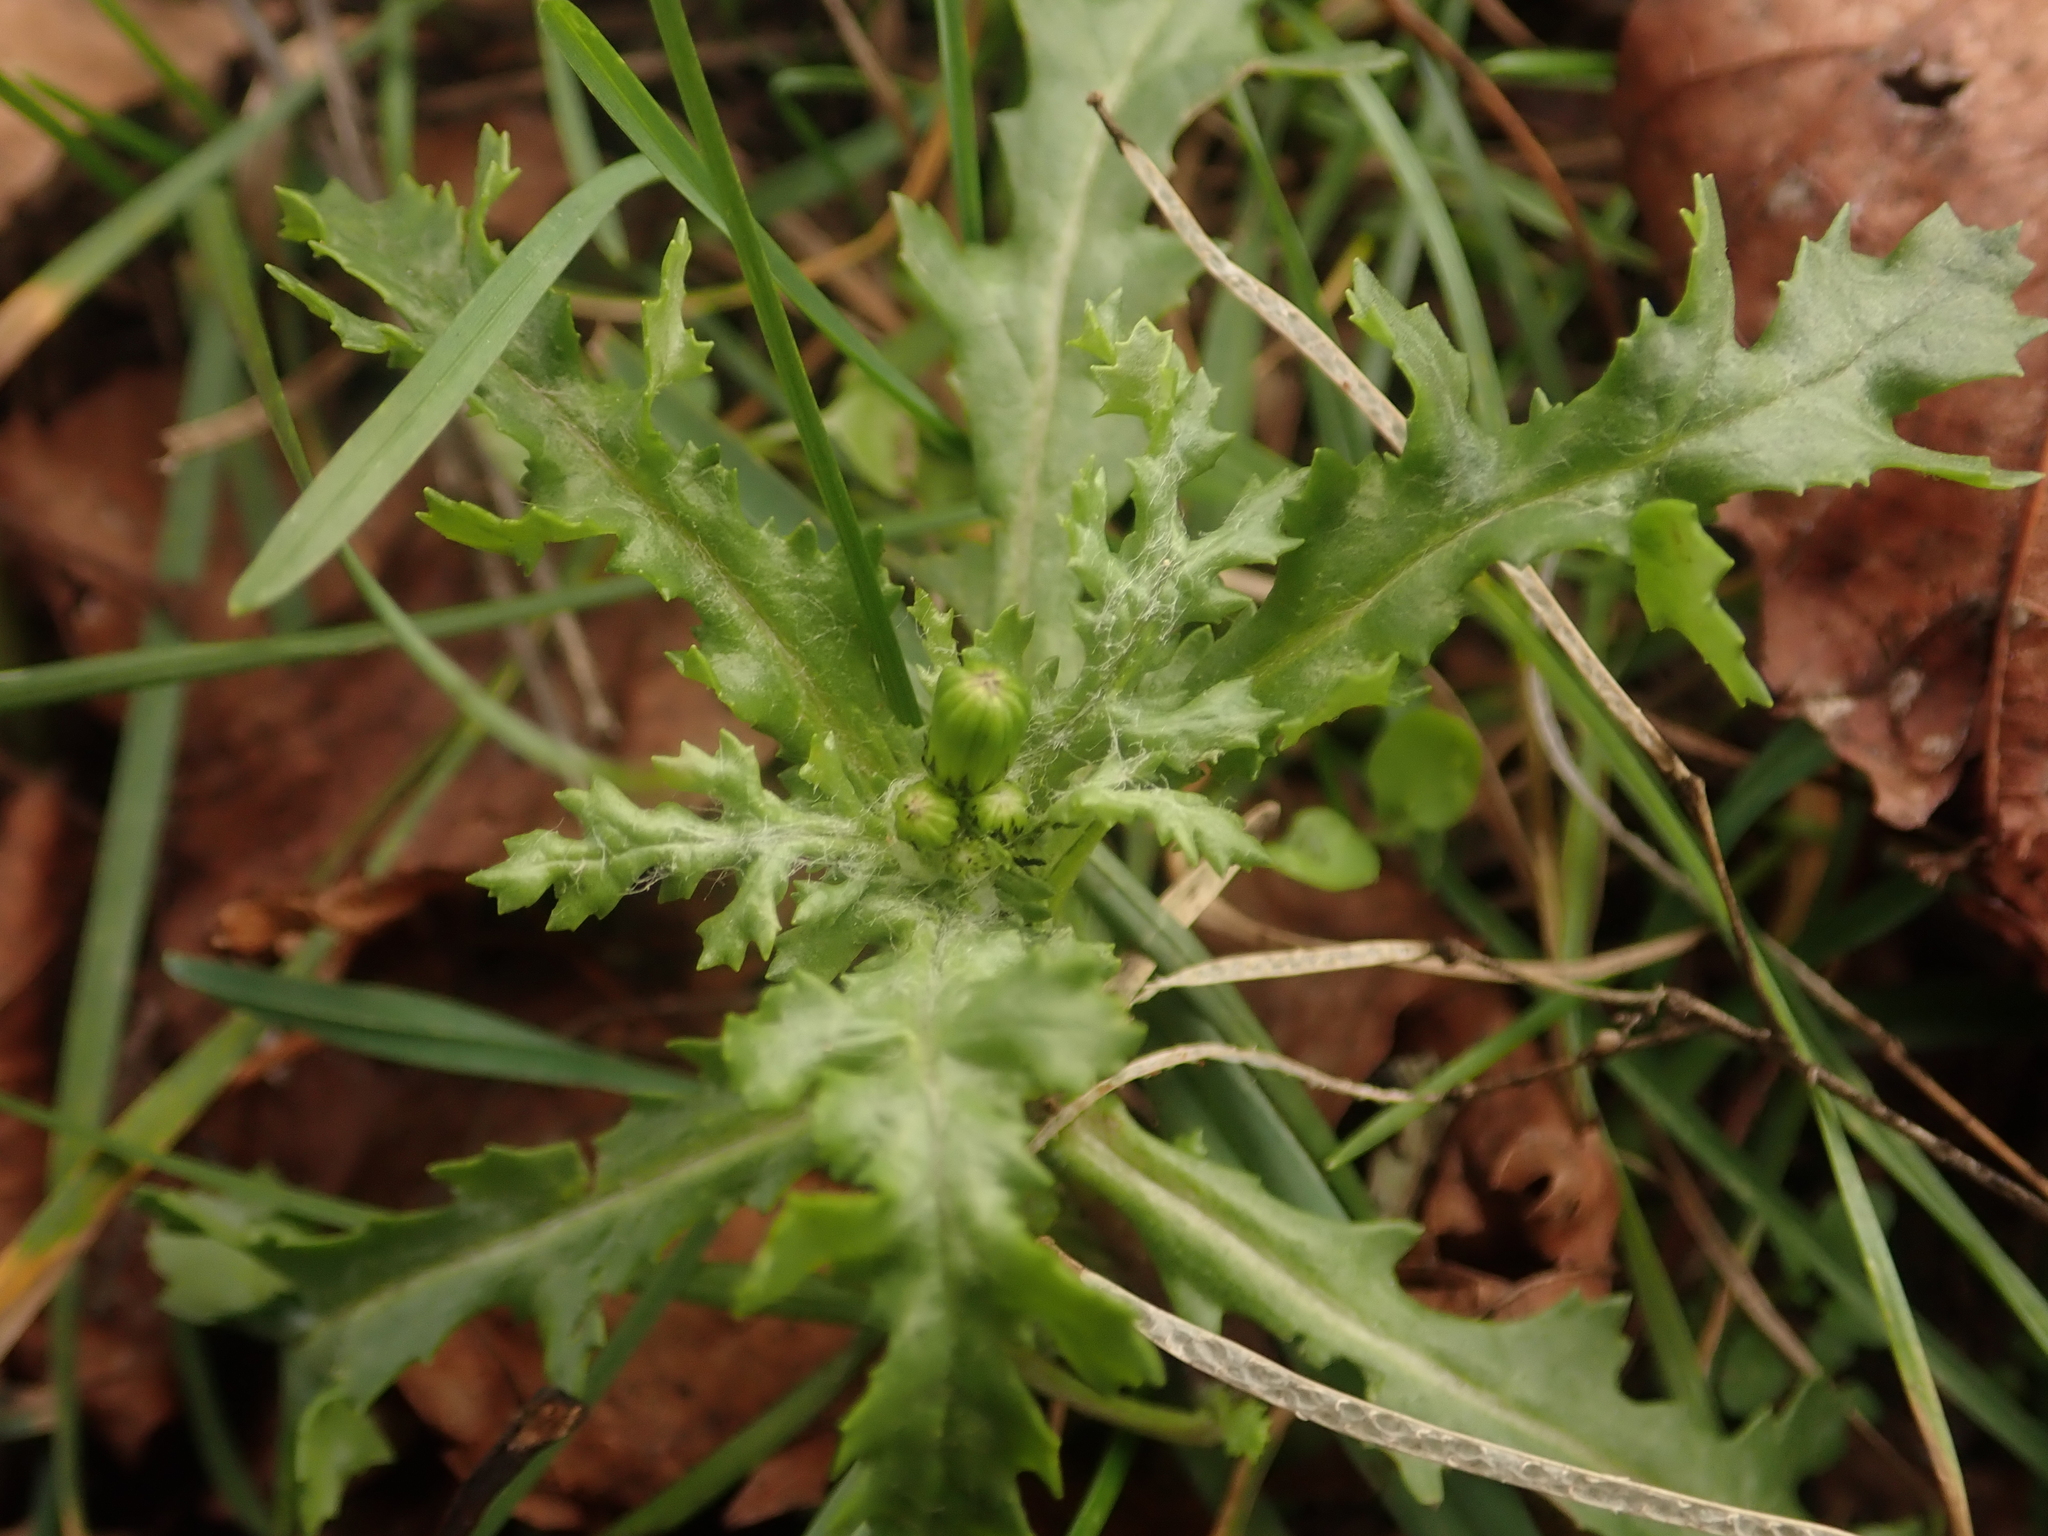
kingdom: Plantae
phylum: Tracheophyta
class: Magnoliopsida
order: Asterales
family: Asteraceae
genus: Senecio
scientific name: Senecio vulgaris
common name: Old-man-in-the-spring
